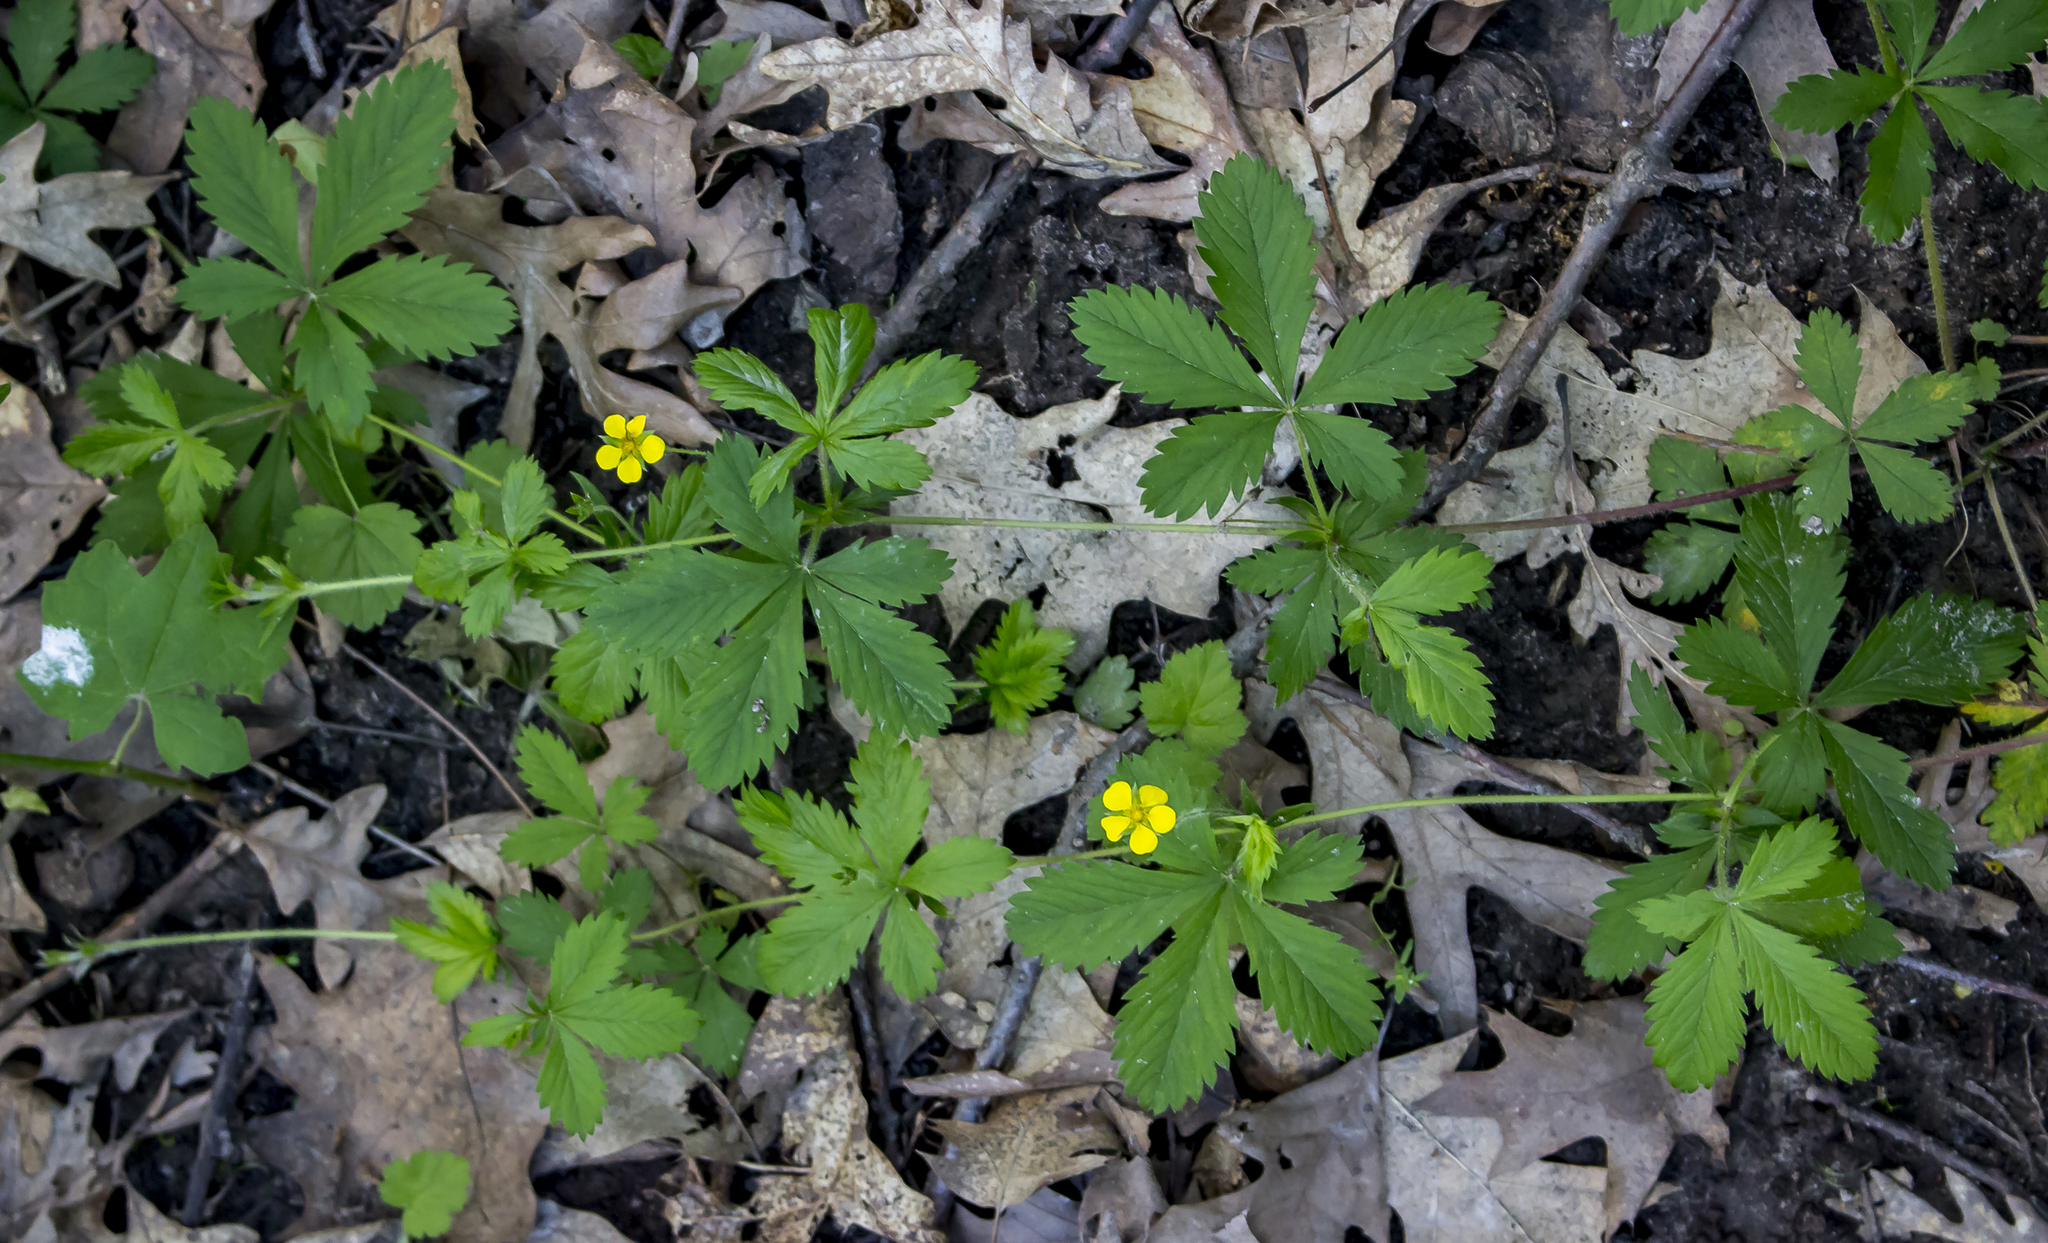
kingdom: Plantae
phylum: Tracheophyta
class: Magnoliopsida
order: Rosales
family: Rosaceae
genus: Potentilla
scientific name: Potentilla simplex
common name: Old field cinquefoil
